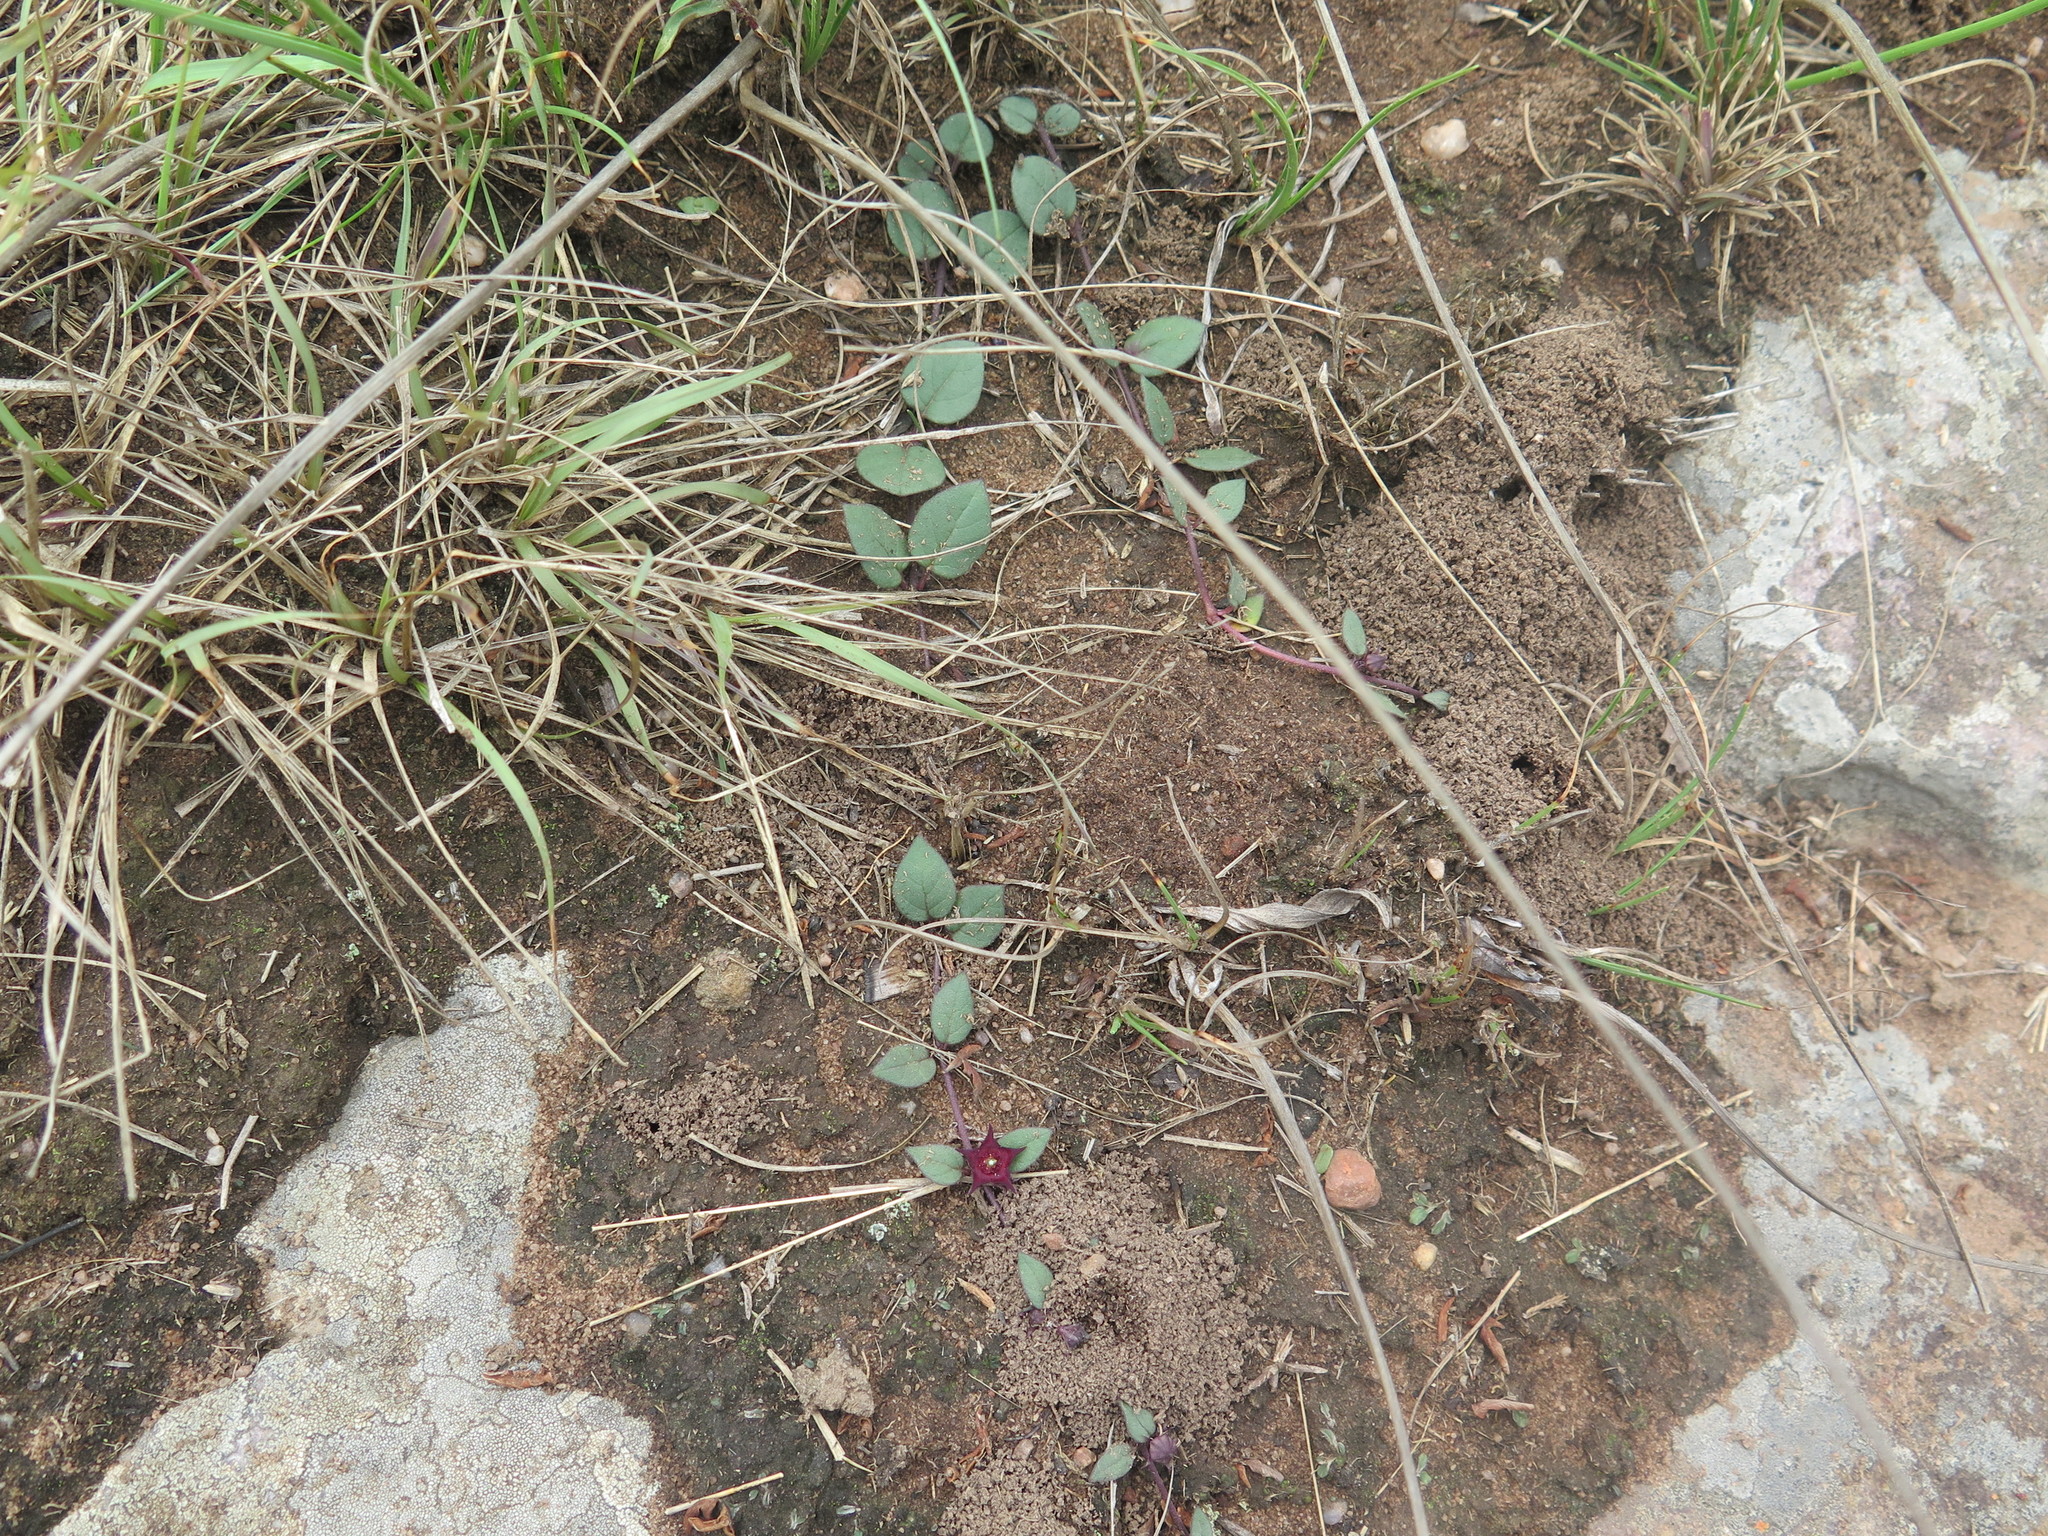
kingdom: Plantae
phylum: Tracheophyta
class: Magnoliopsida
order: Gentianales
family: Apocynaceae
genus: Ceropegia
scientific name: Ceropegia modestantha
